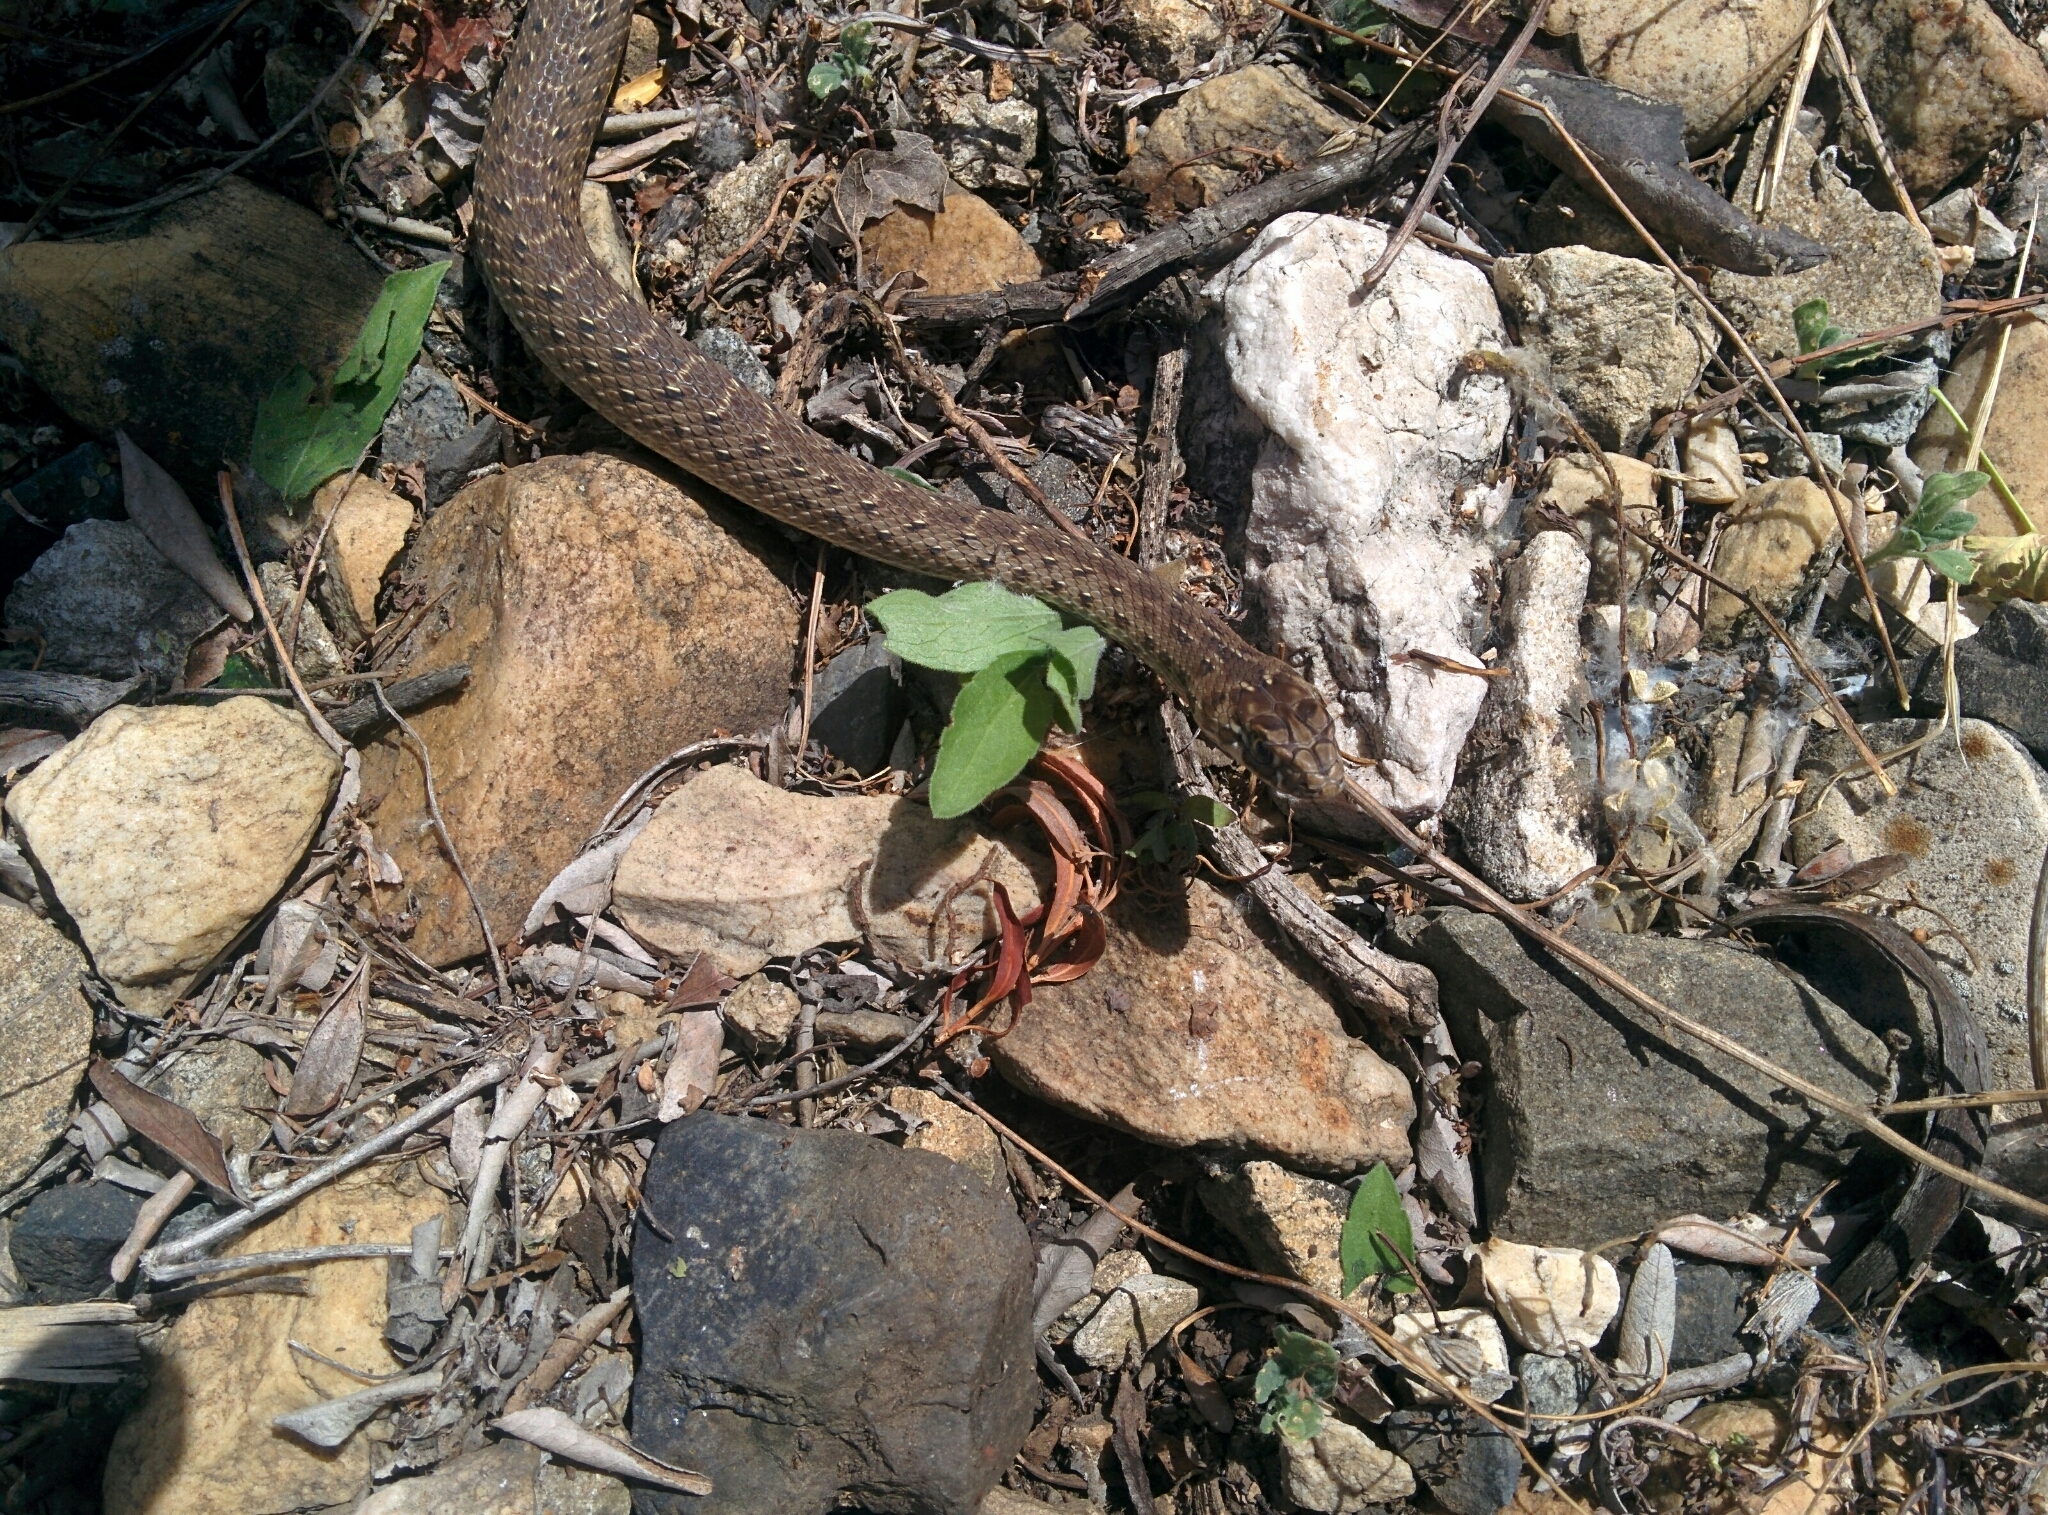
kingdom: Animalia
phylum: Chordata
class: Squamata
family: Psammophiidae
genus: Malpolon
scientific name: Malpolon monspessulanus
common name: Montpellier snake
